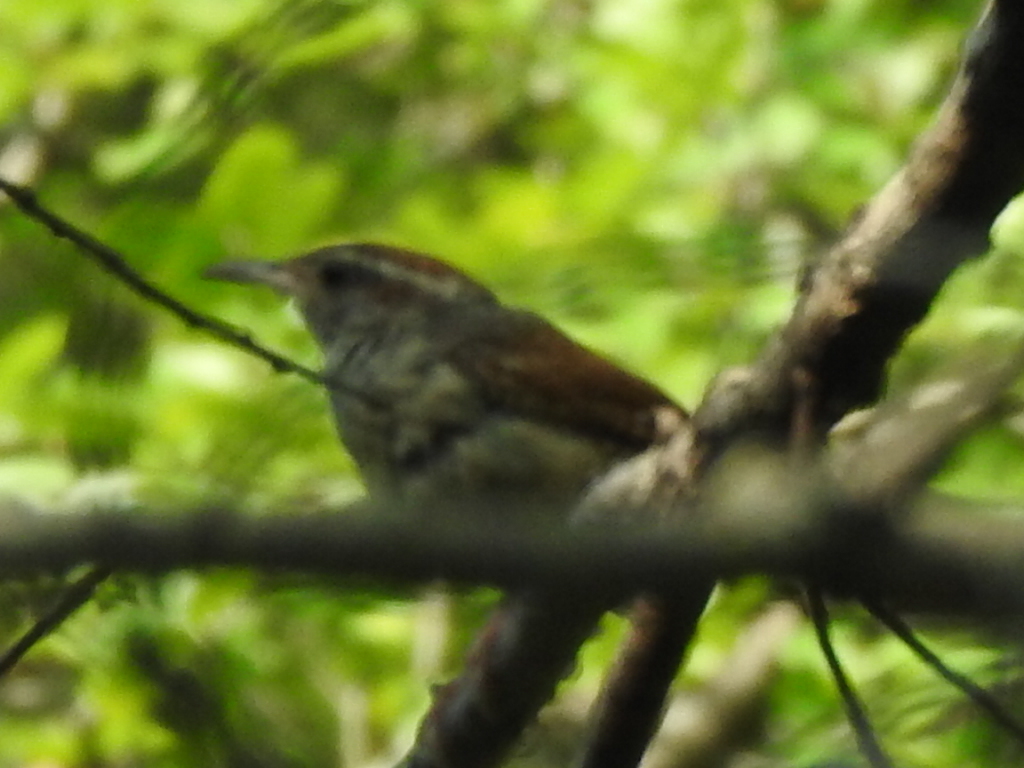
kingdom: Animalia
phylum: Chordata
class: Aves
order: Passeriformes
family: Troglodytidae
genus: Thryothorus
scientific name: Thryothorus ludovicianus
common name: Carolina wren
